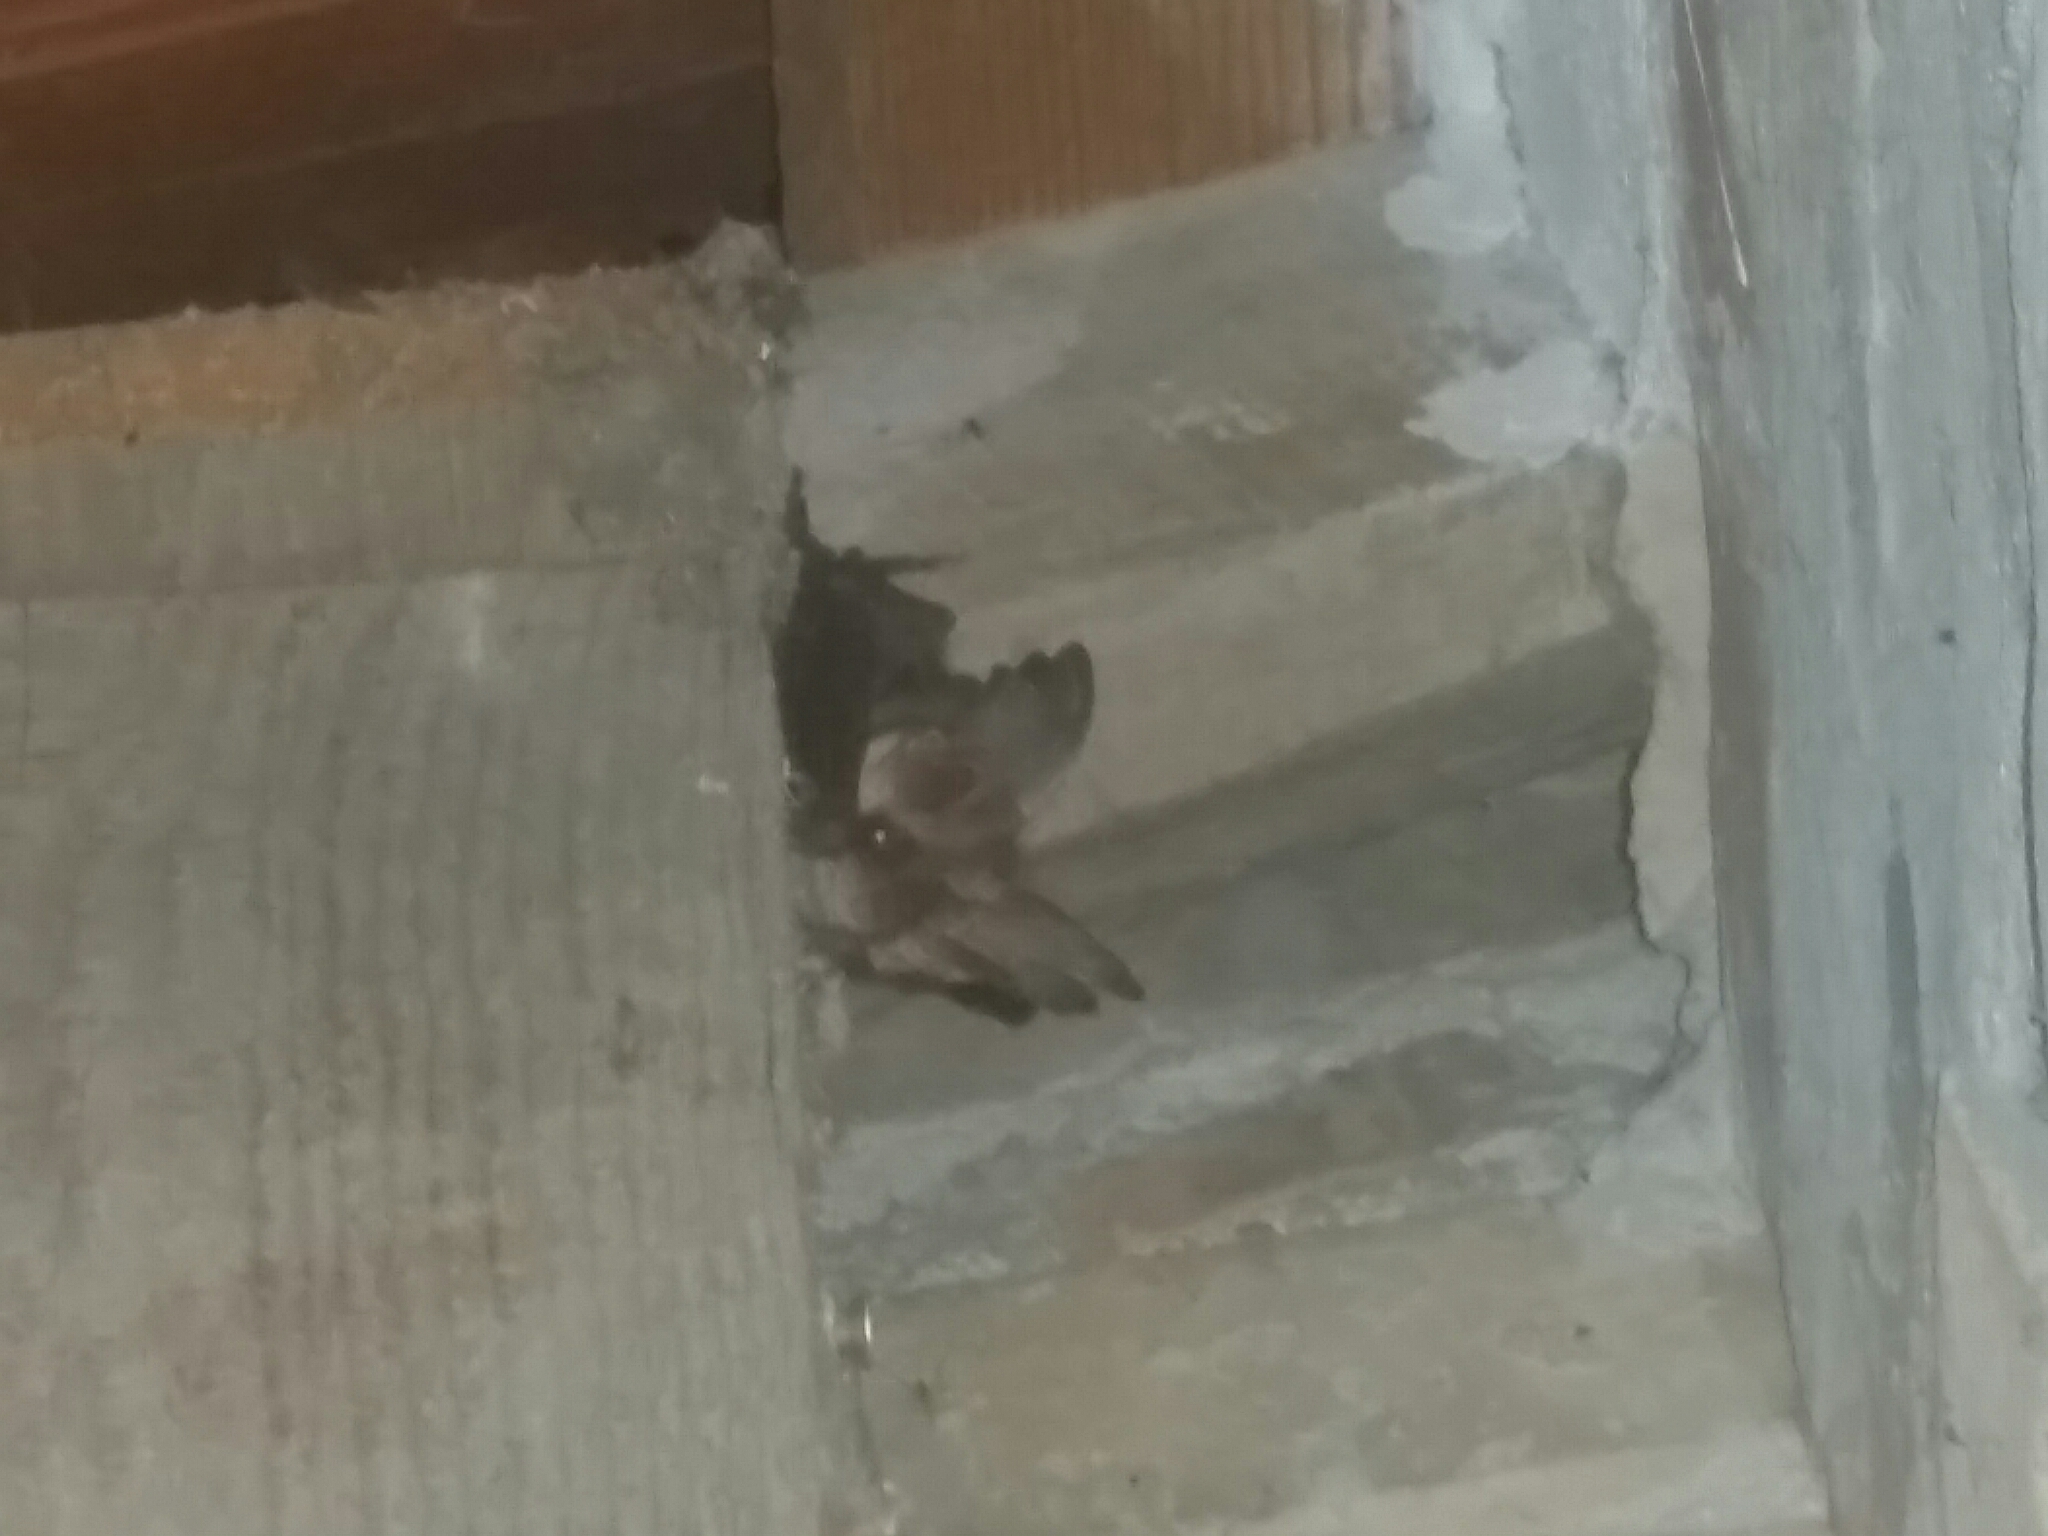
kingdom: Animalia
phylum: Chordata
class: Mammalia
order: Chiroptera
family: Vespertilionidae
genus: Plecotus
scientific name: Plecotus austriacus
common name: Grey long-eared bat
